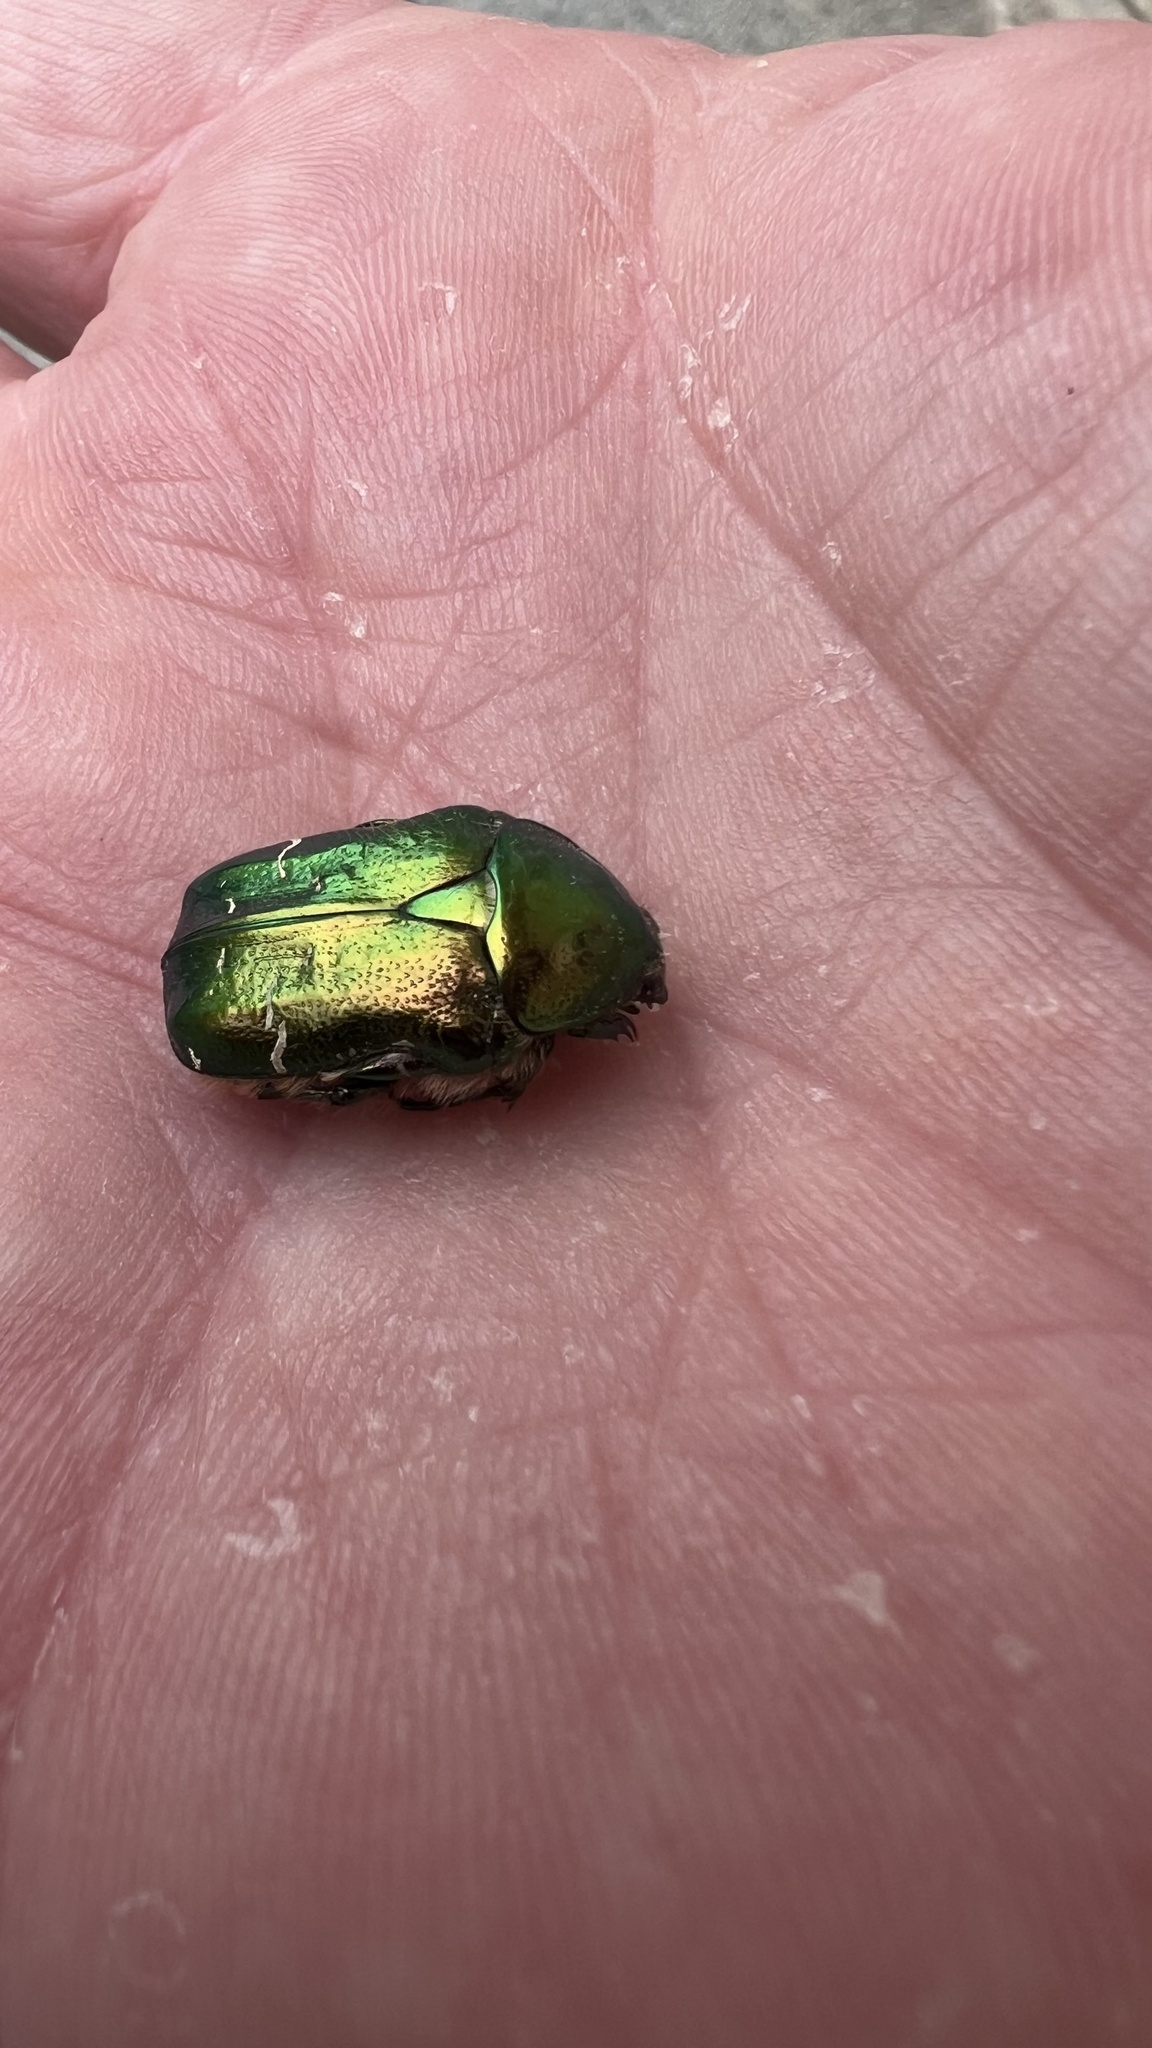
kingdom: Animalia
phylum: Arthropoda
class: Insecta
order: Coleoptera
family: Scarabaeidae
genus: Cetonia
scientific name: Cetonia aurata
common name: Rose chafer
